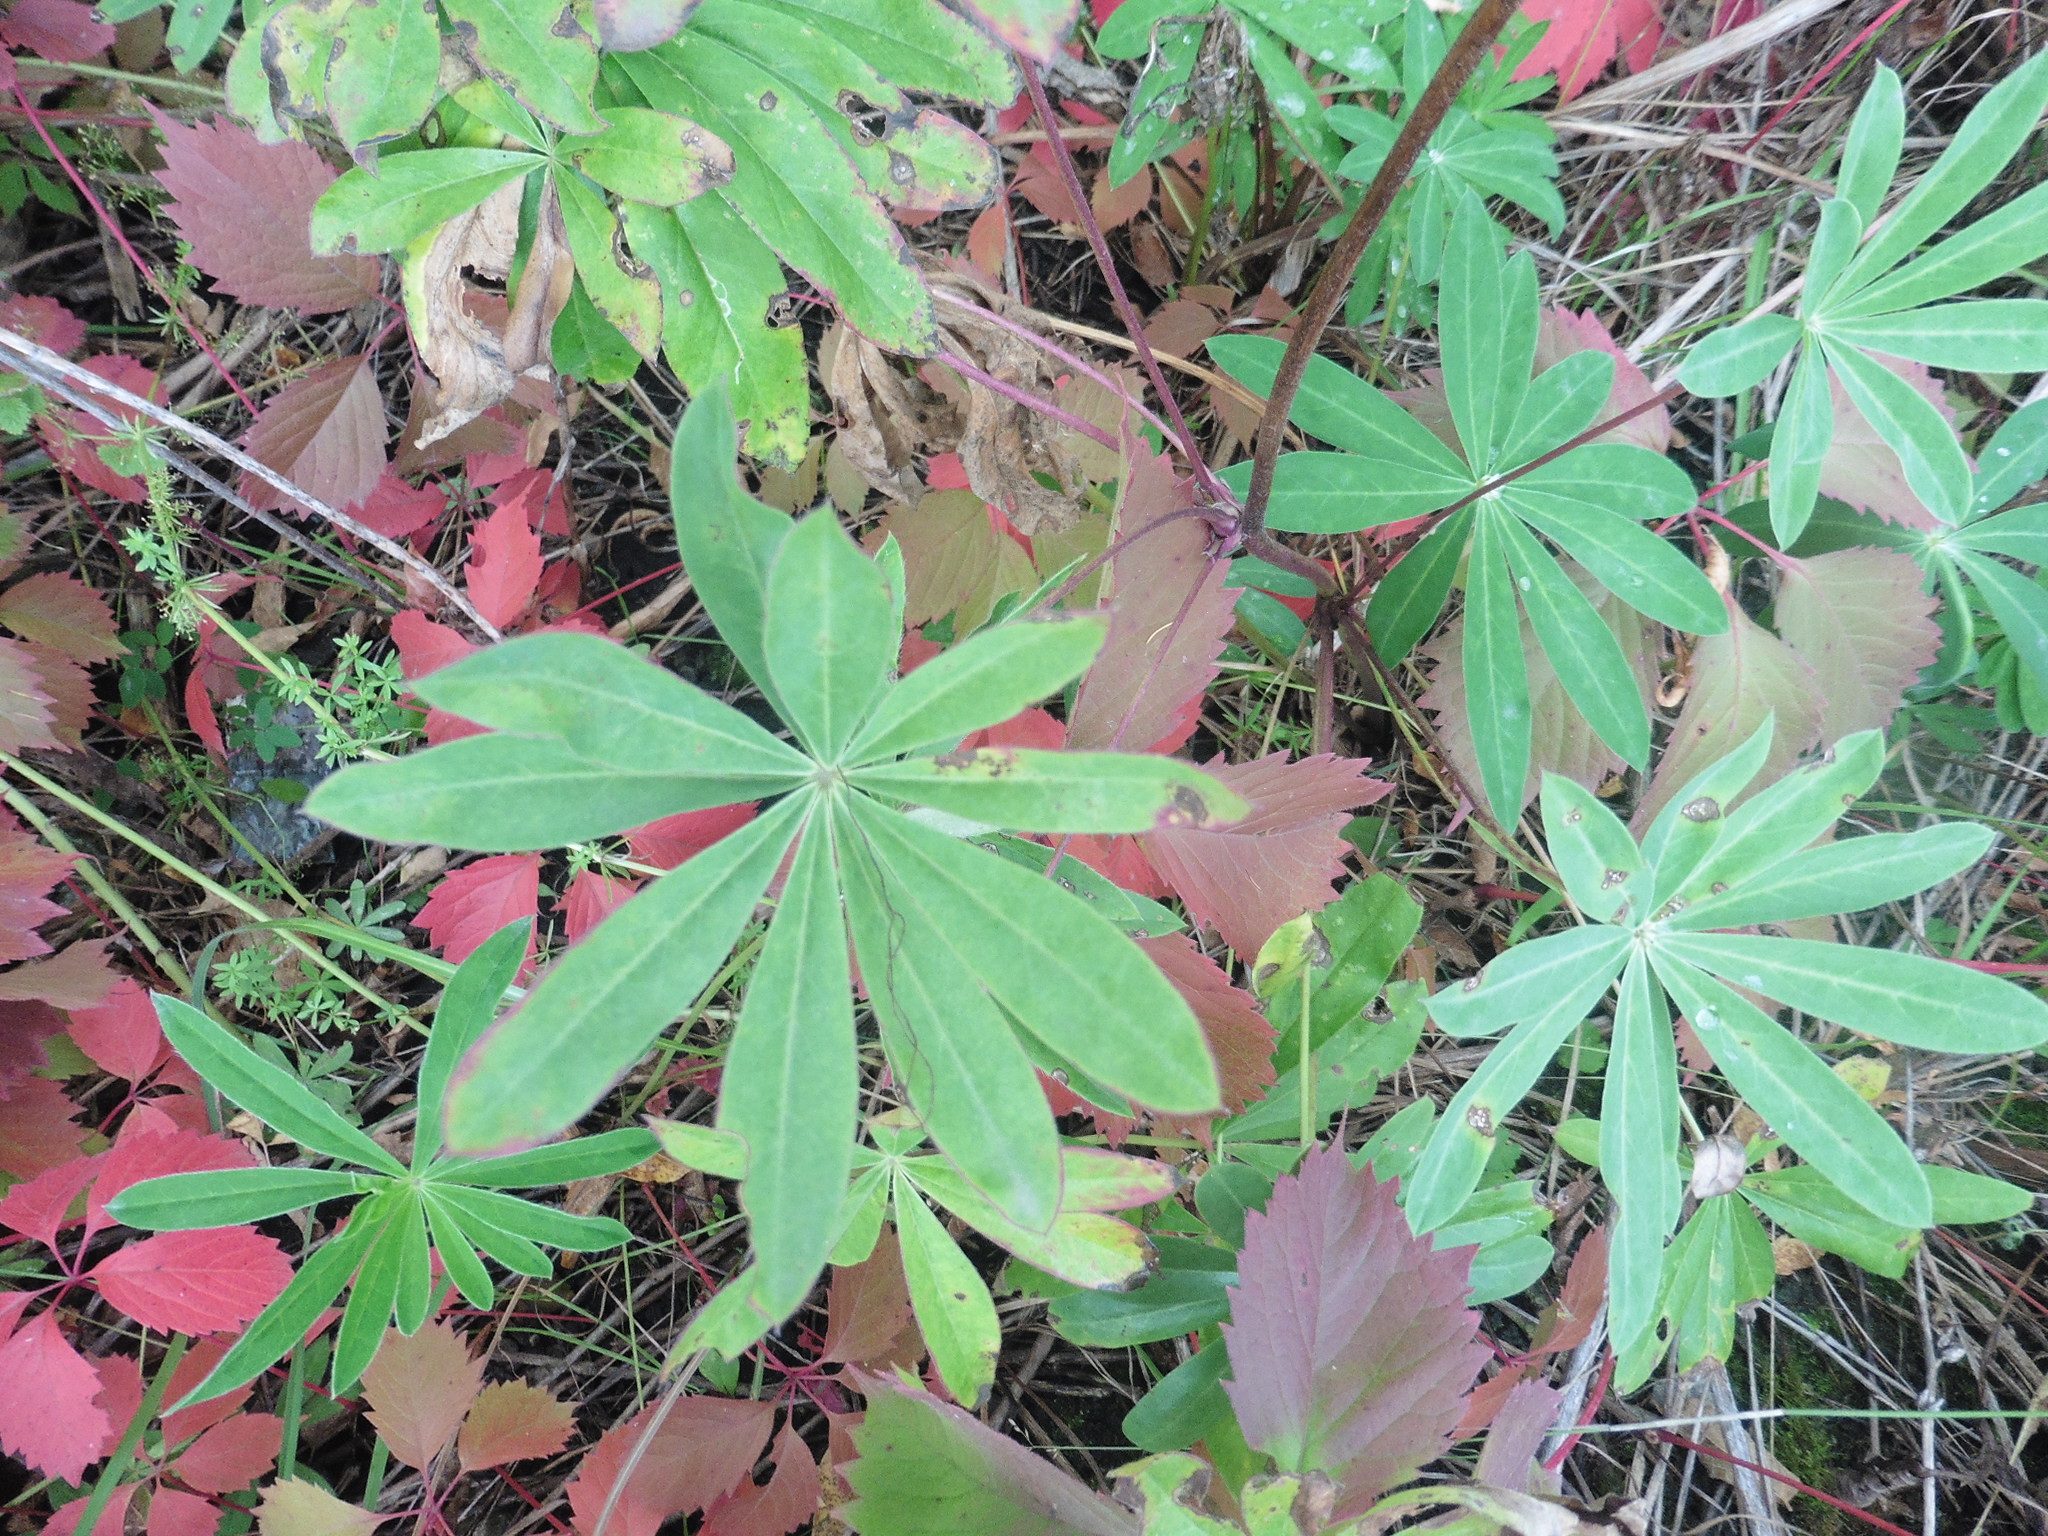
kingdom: Plantae
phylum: Tracheophyta
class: Magnoliopsida
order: Fabales
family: Fabaceae
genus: Lupinus
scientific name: Lupinus polyphyllus
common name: Garden lupin
